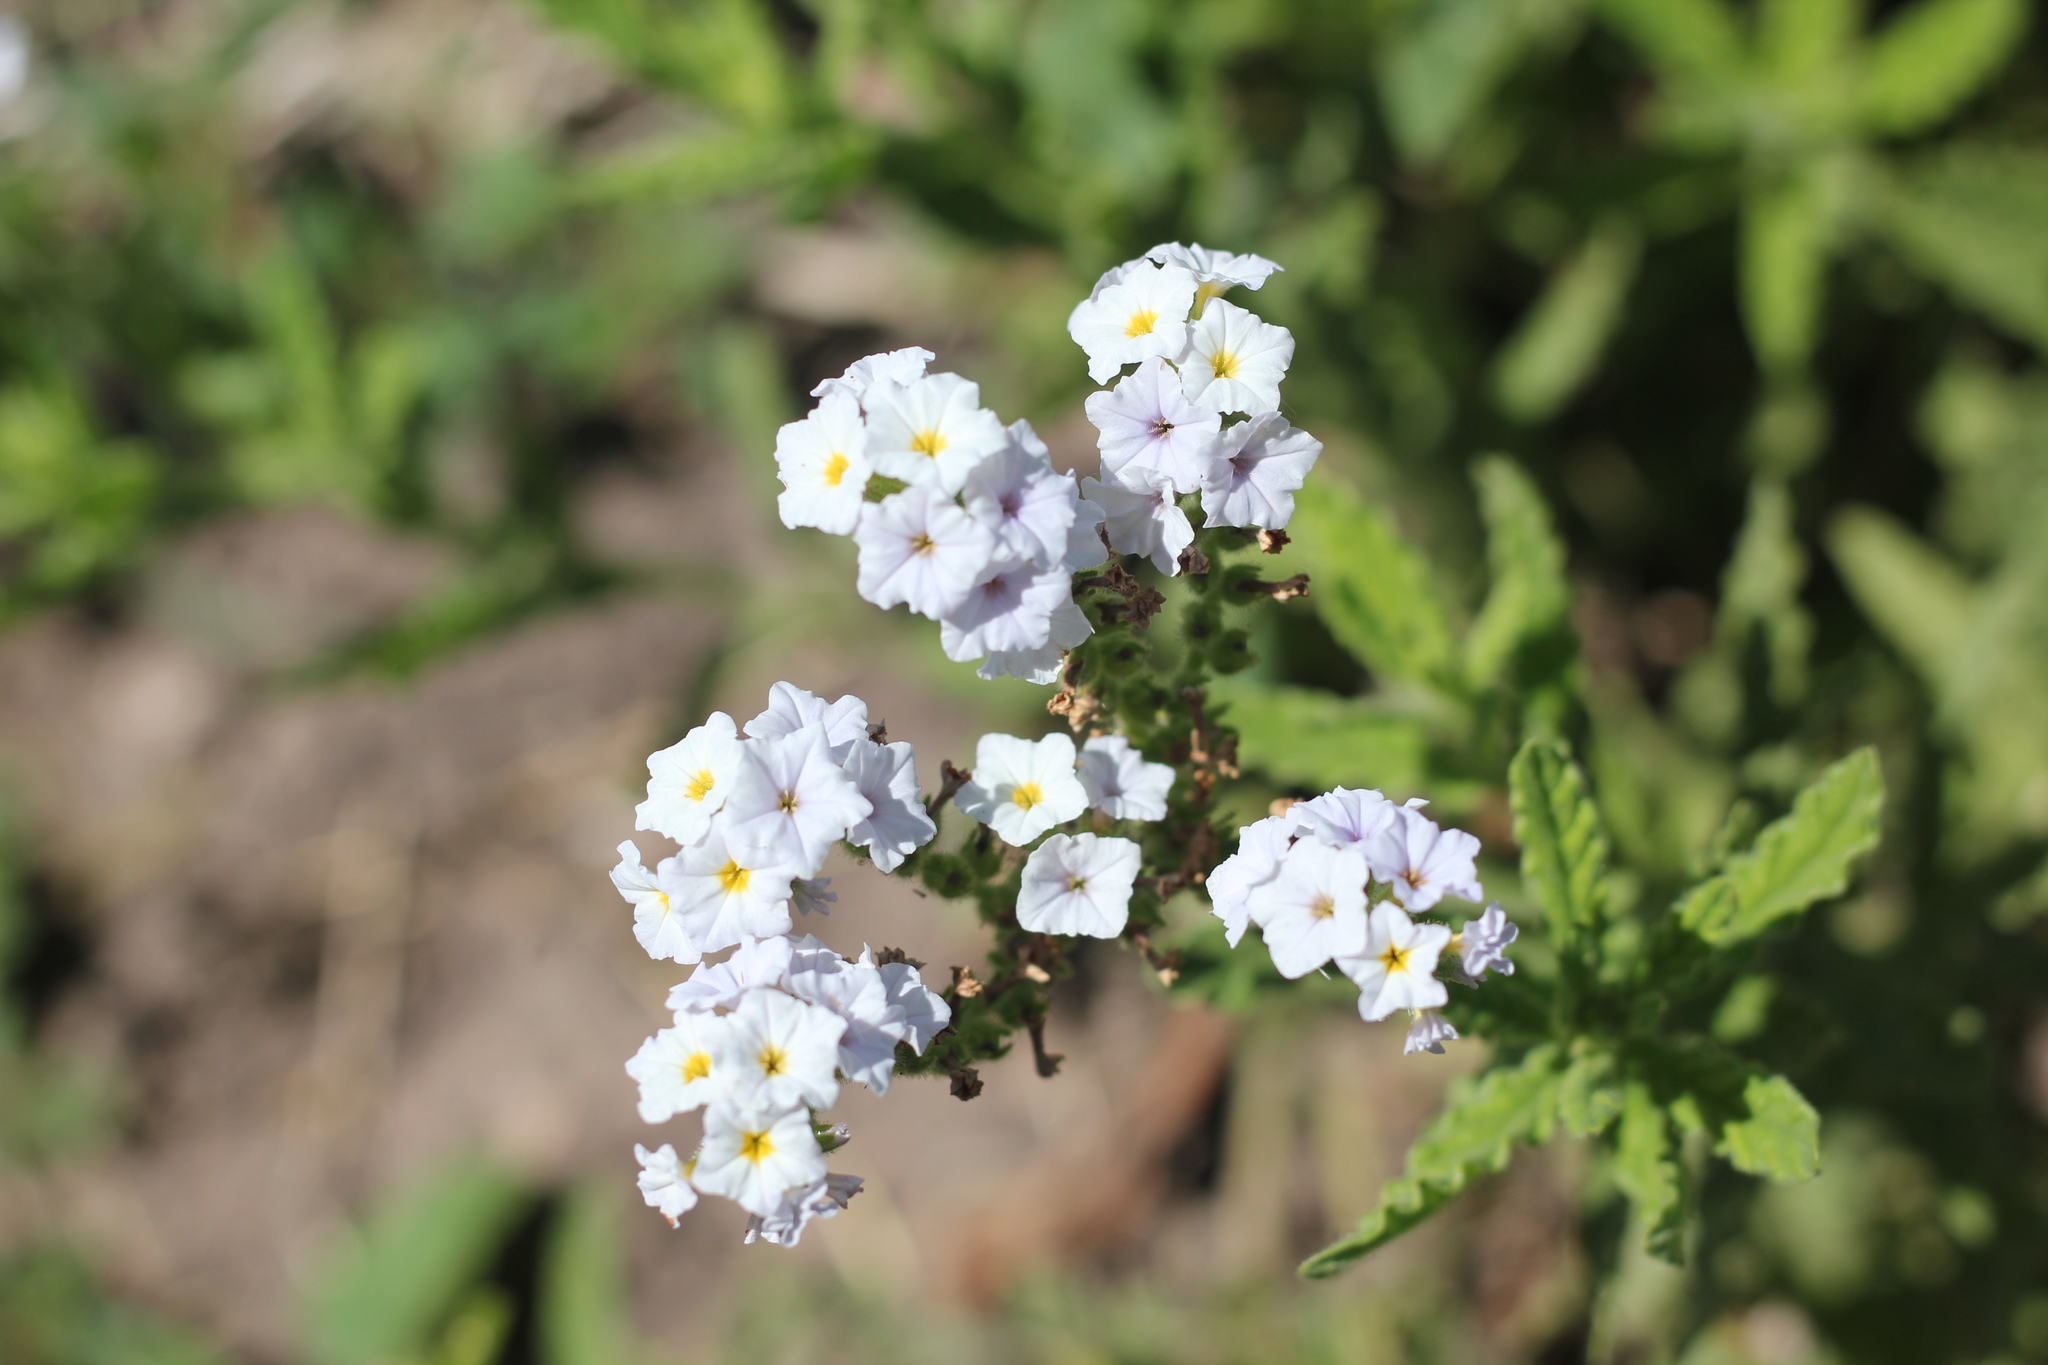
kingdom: Plantae
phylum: Tracheophyta
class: Magnoliopsida
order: Boraginales
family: Heliotropiaceae
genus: Heliotropium
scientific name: Heliotropium amplexicaule
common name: Clasping heliotrope
